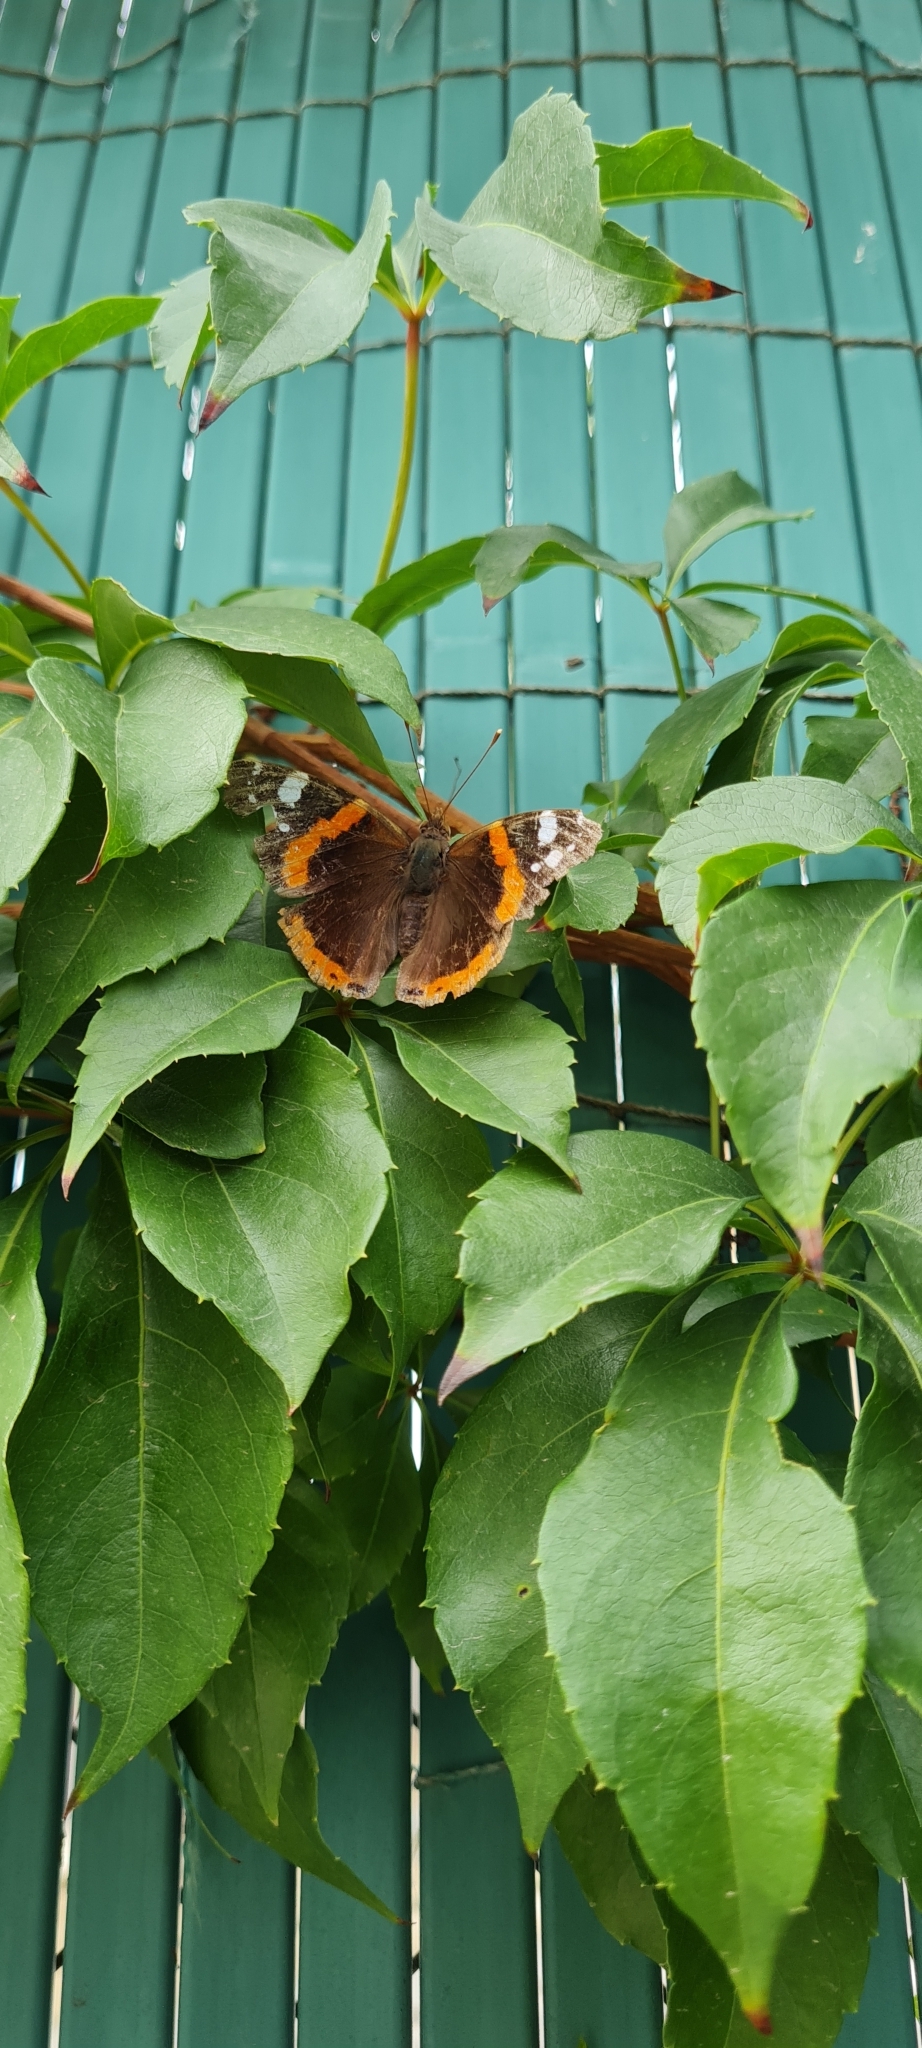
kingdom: Animalia
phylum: Arthropoda
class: Insecta
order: Lepidoptera
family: Nymphalidae
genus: Vanessa
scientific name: Vanessa atalanta
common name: Red admiral
